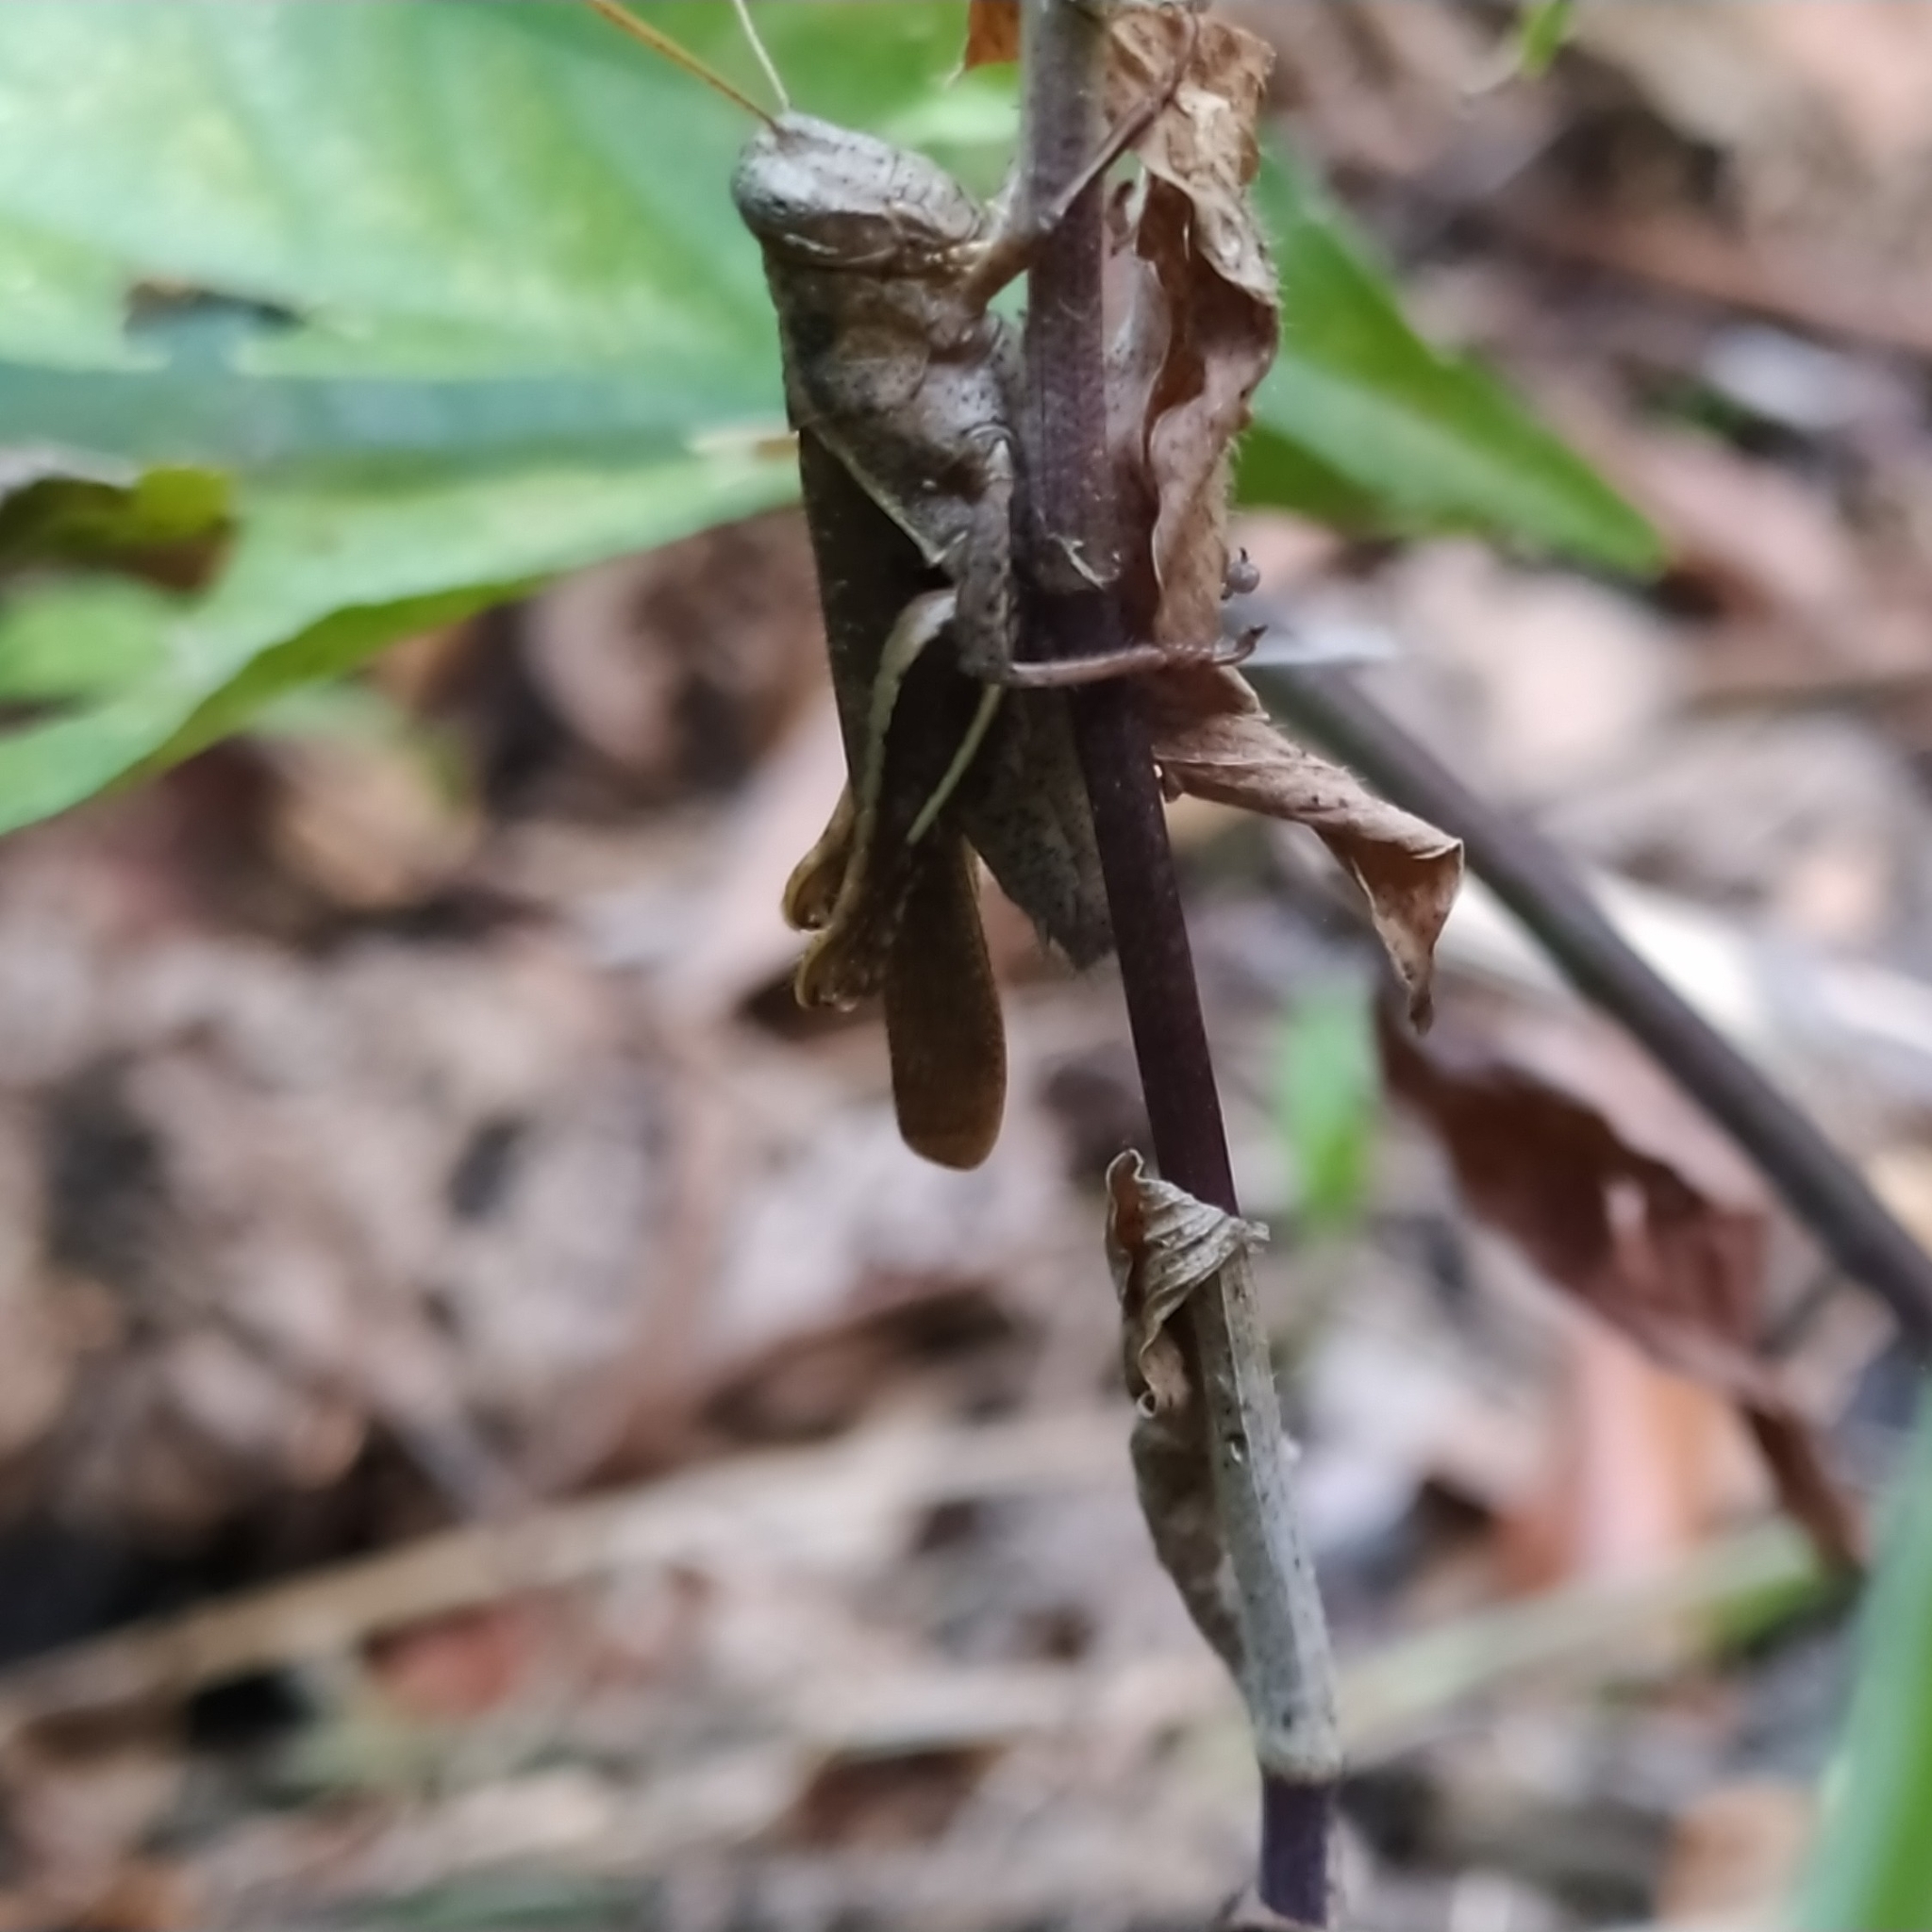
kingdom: Animalia
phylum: Arthropoda
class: Insecta
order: Orthoptera
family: Acrididae
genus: Abracris
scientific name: Abracris flavolineata
